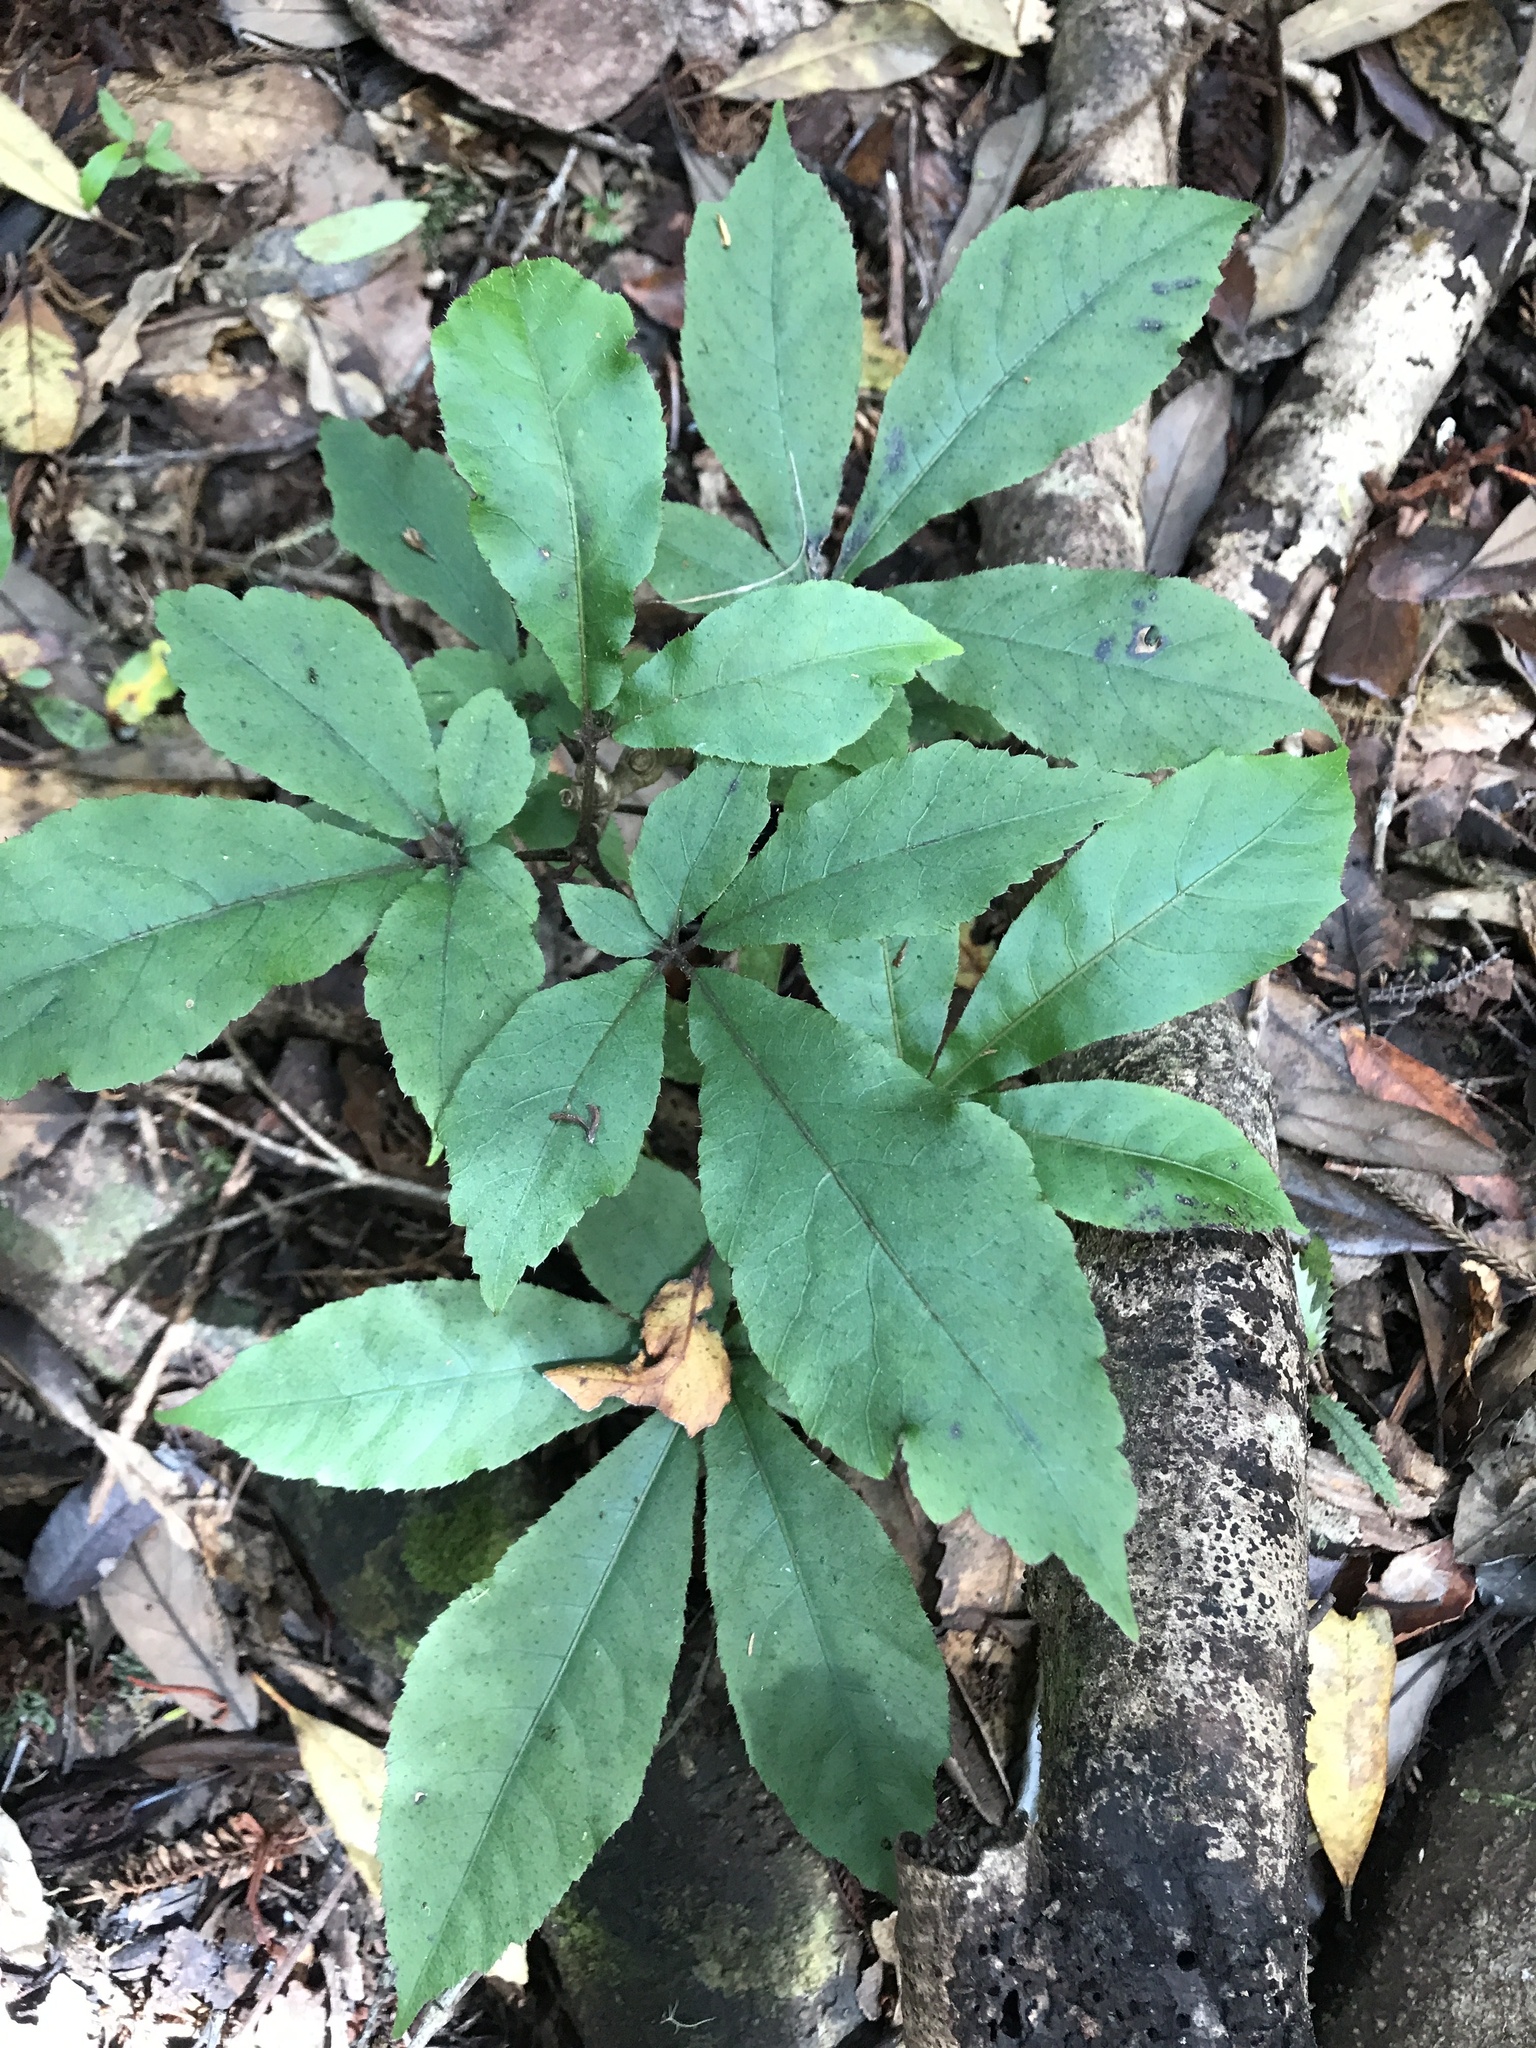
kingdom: Plantae
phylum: Tracheophyta
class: Magnoliopsida
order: Apiales
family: Araliaceae
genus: Schefflera
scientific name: Schefflera digitata
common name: Pate
